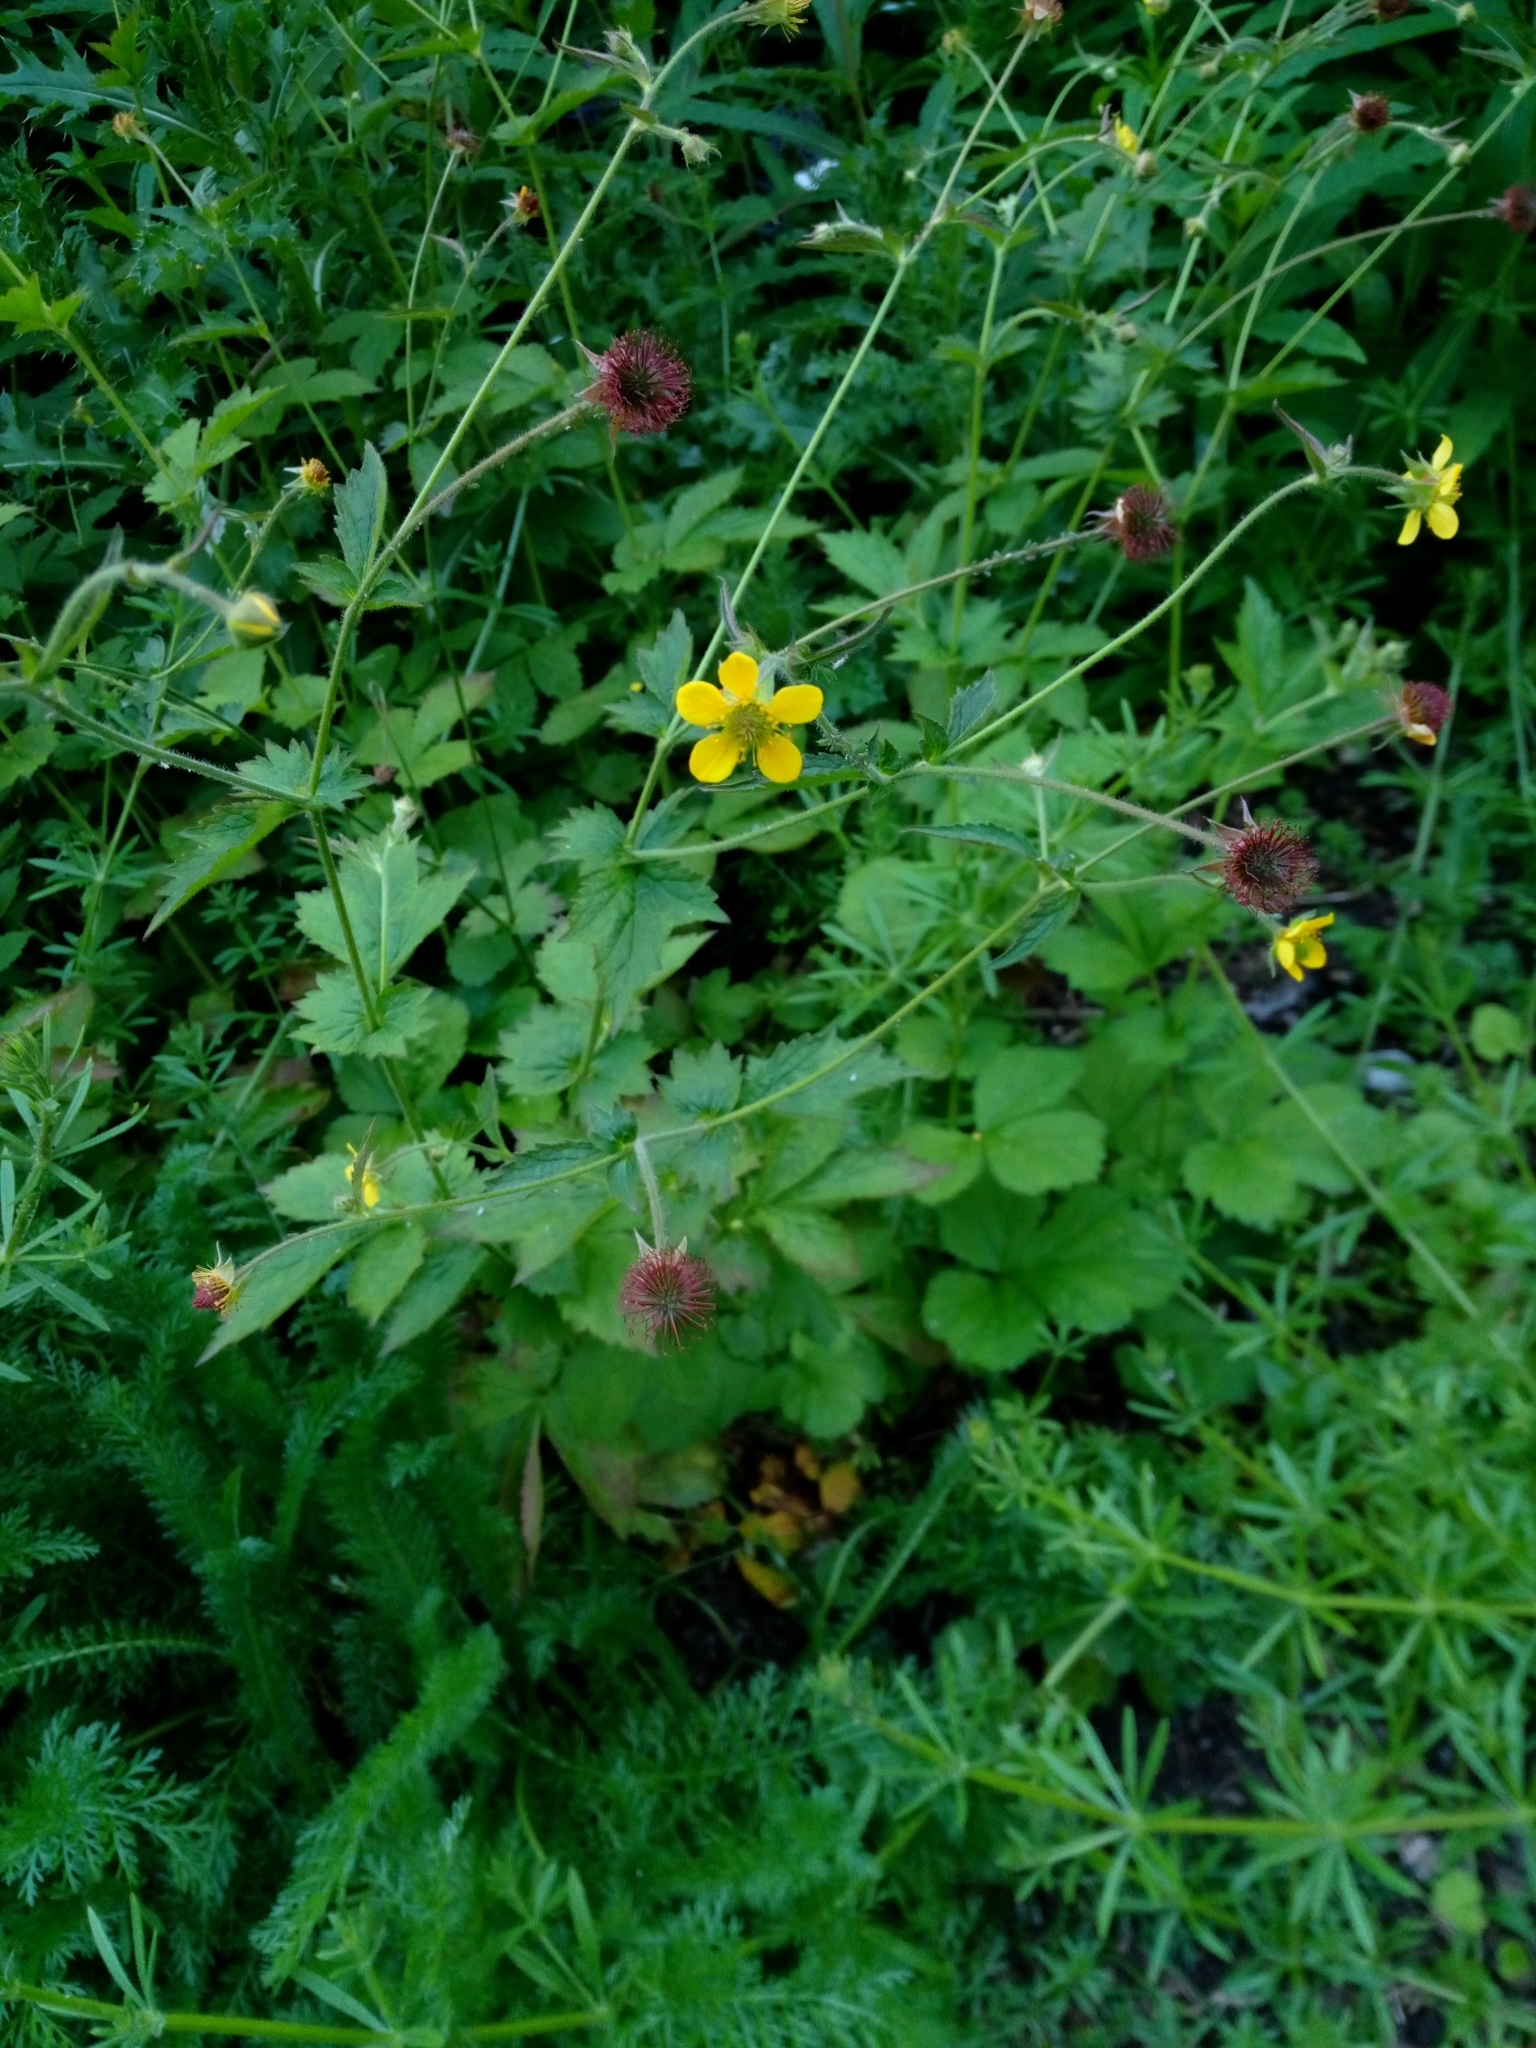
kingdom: Plantae
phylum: Tracheophyta
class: Magnoliopsida
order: Rosales
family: Rosaceae
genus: Geum
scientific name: Geum urbanum
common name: Wood avens
